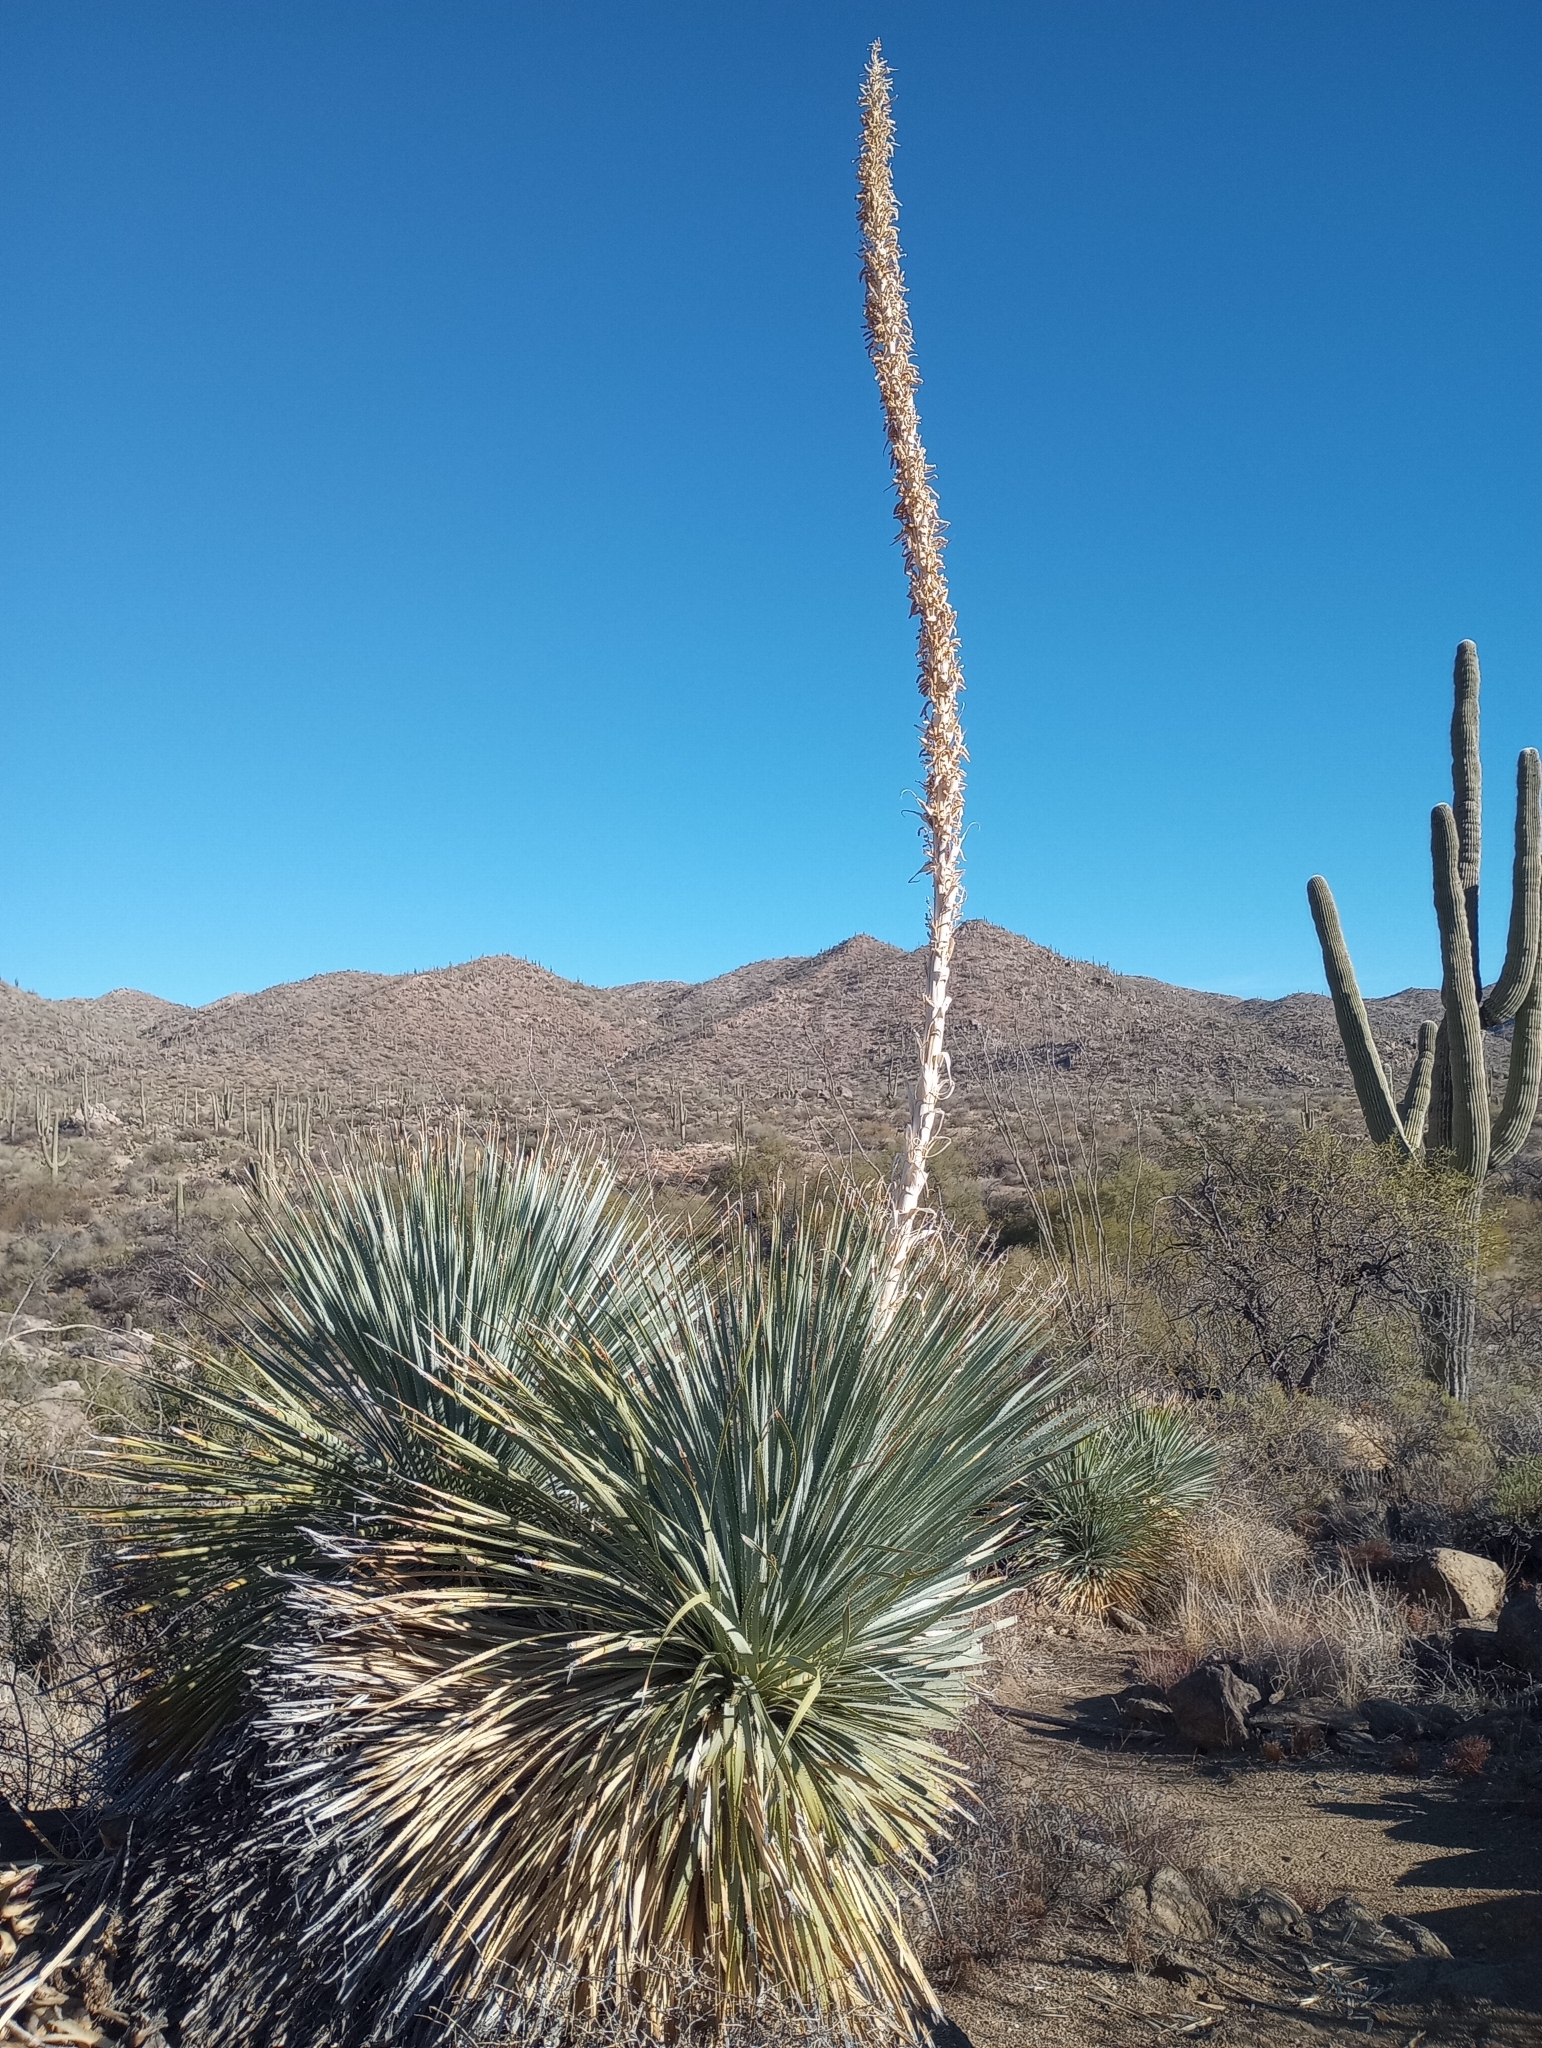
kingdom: Plantae
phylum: Tracheophyta
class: Liliopsida
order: Asparagales
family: Asparagaceae
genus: Dasylirion
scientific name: Dasylirion wheeleri
